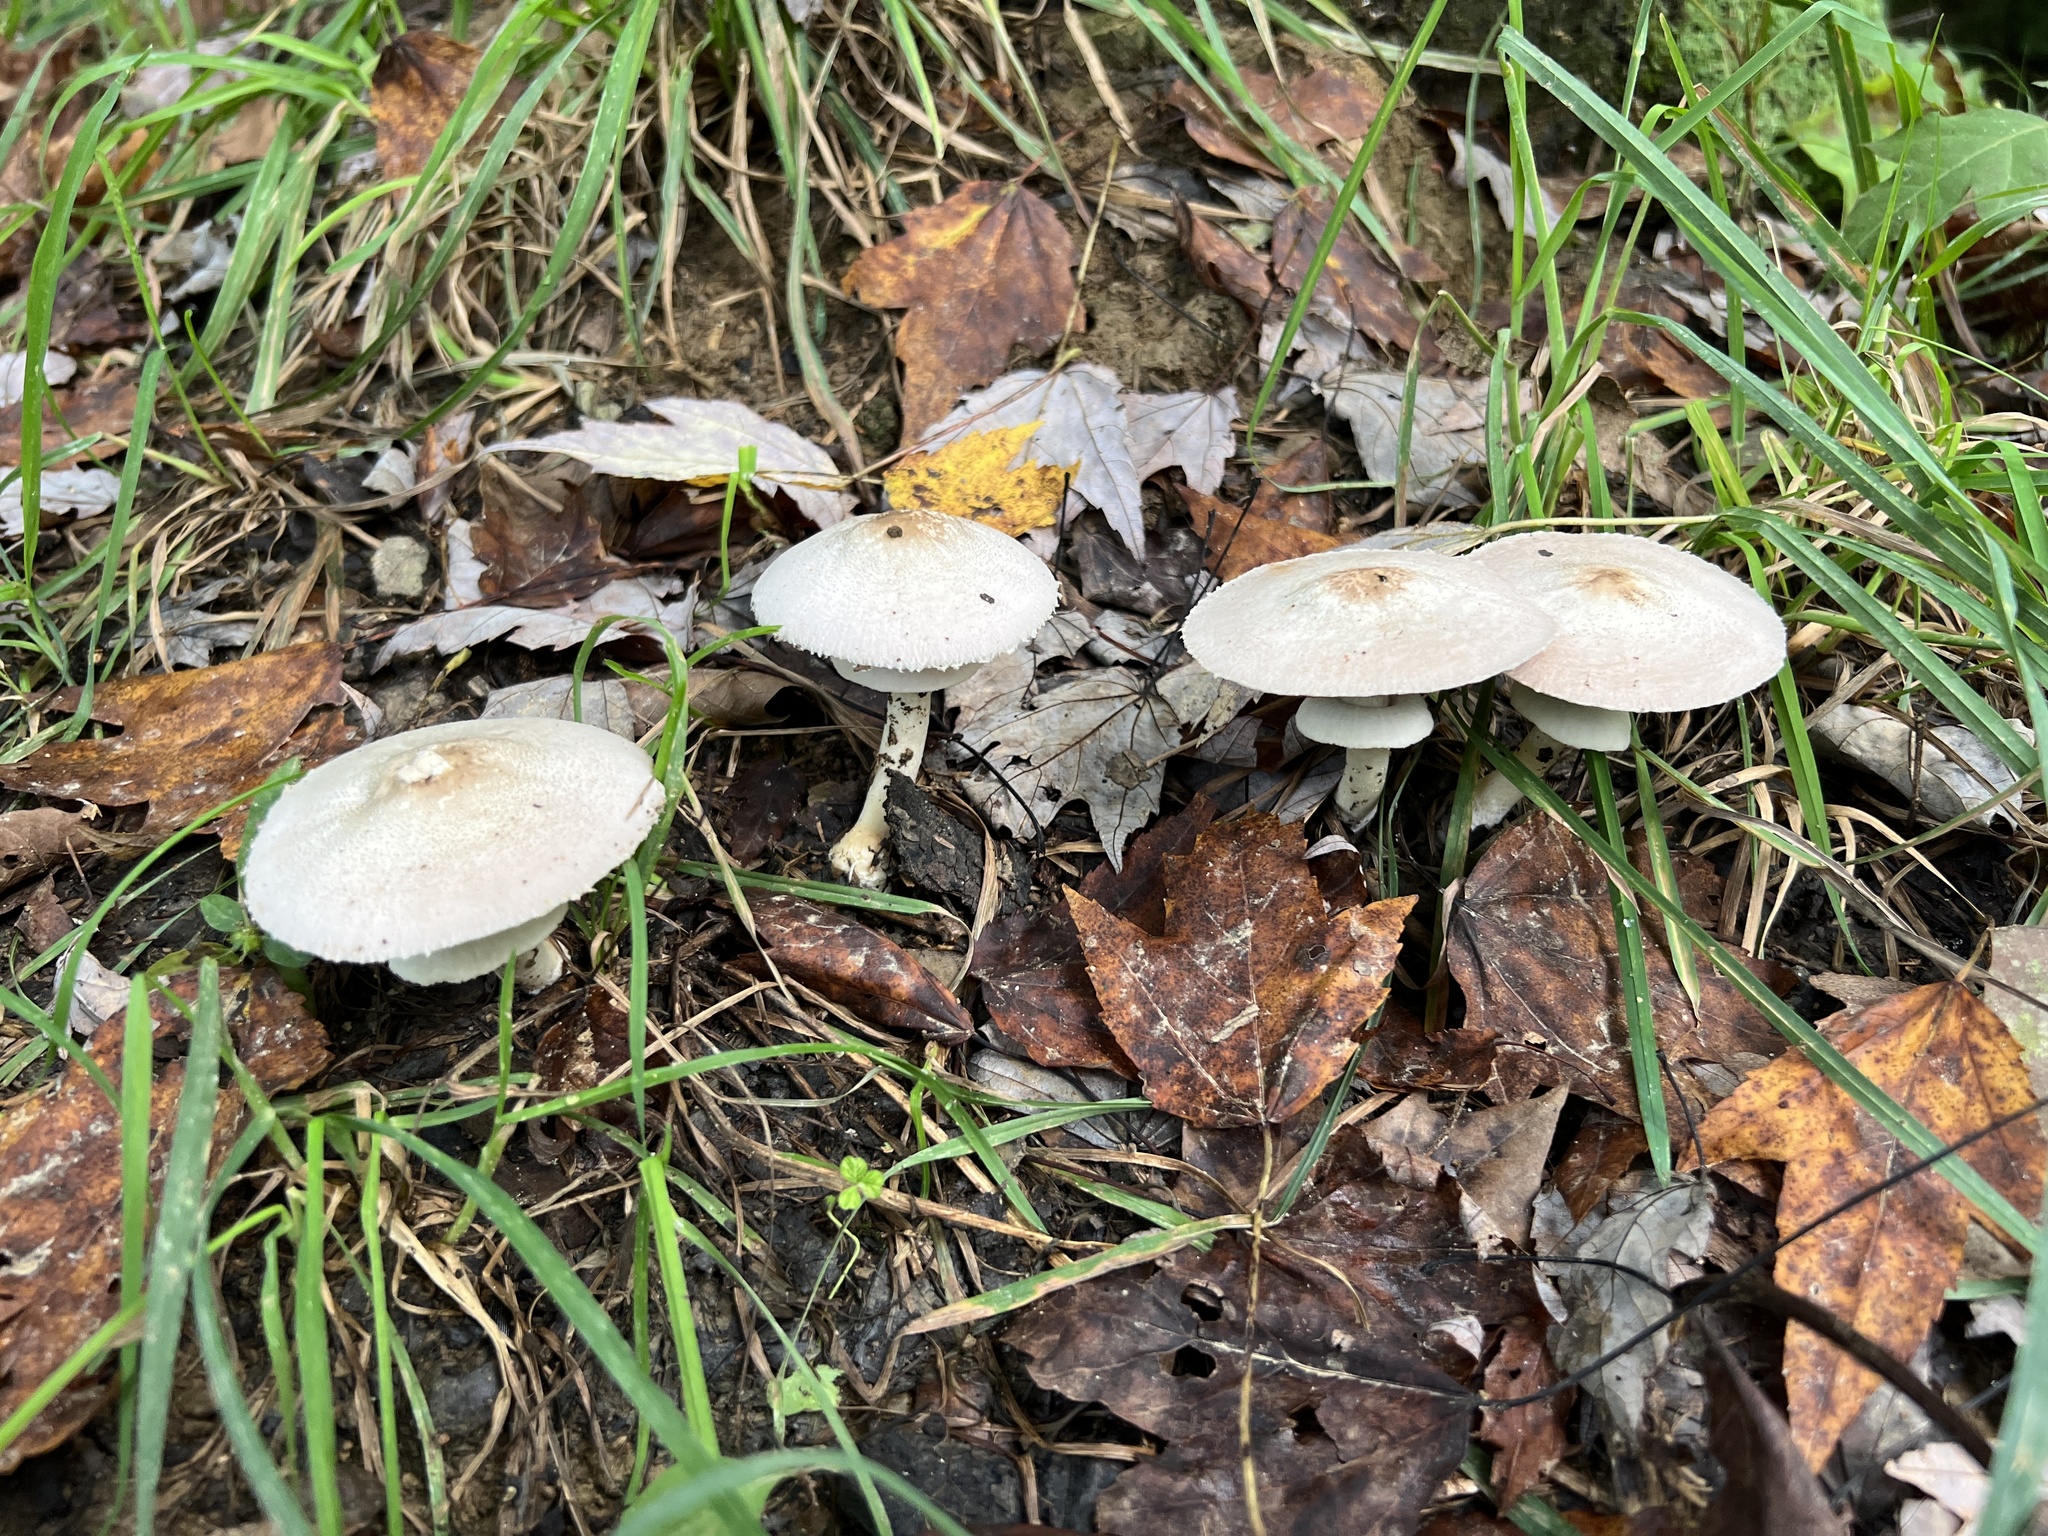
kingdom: Fungi
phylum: Basidiomycota
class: Agaricomycetes
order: Agaricales
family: Agaricaceae
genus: Agaricus
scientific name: Agaricus pocillator
